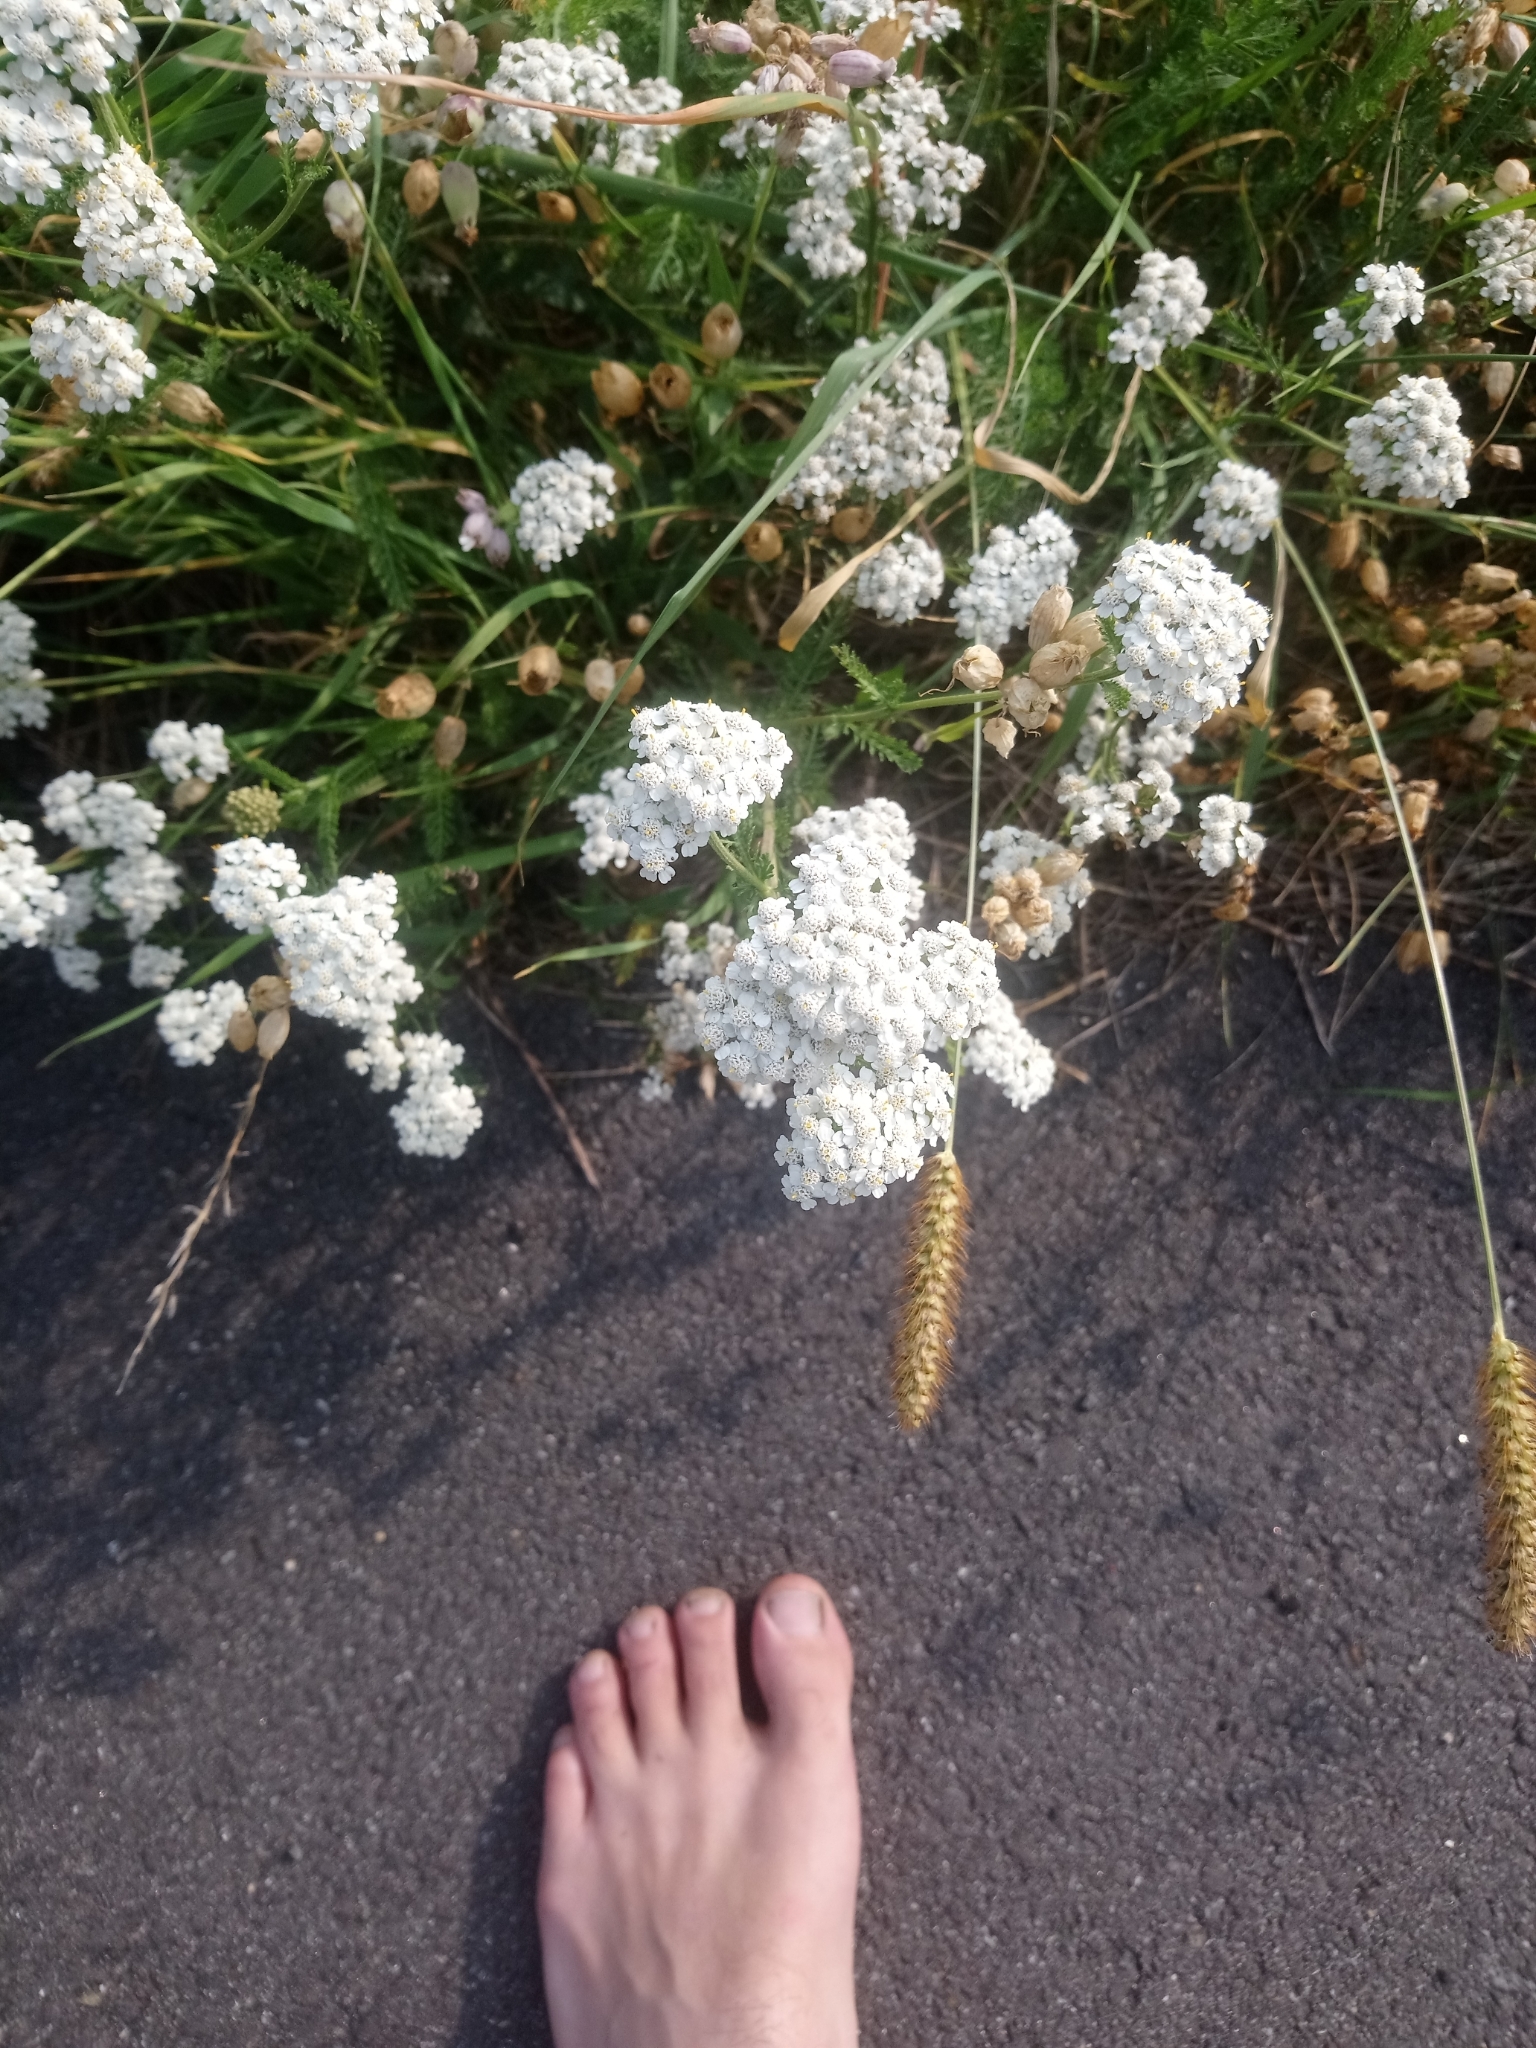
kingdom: Plantae
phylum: Tracheophyta
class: Magnoliopsida
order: Asterales
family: Asteraceae
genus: Achillea
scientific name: Achillea millefolium
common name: Yarrow
